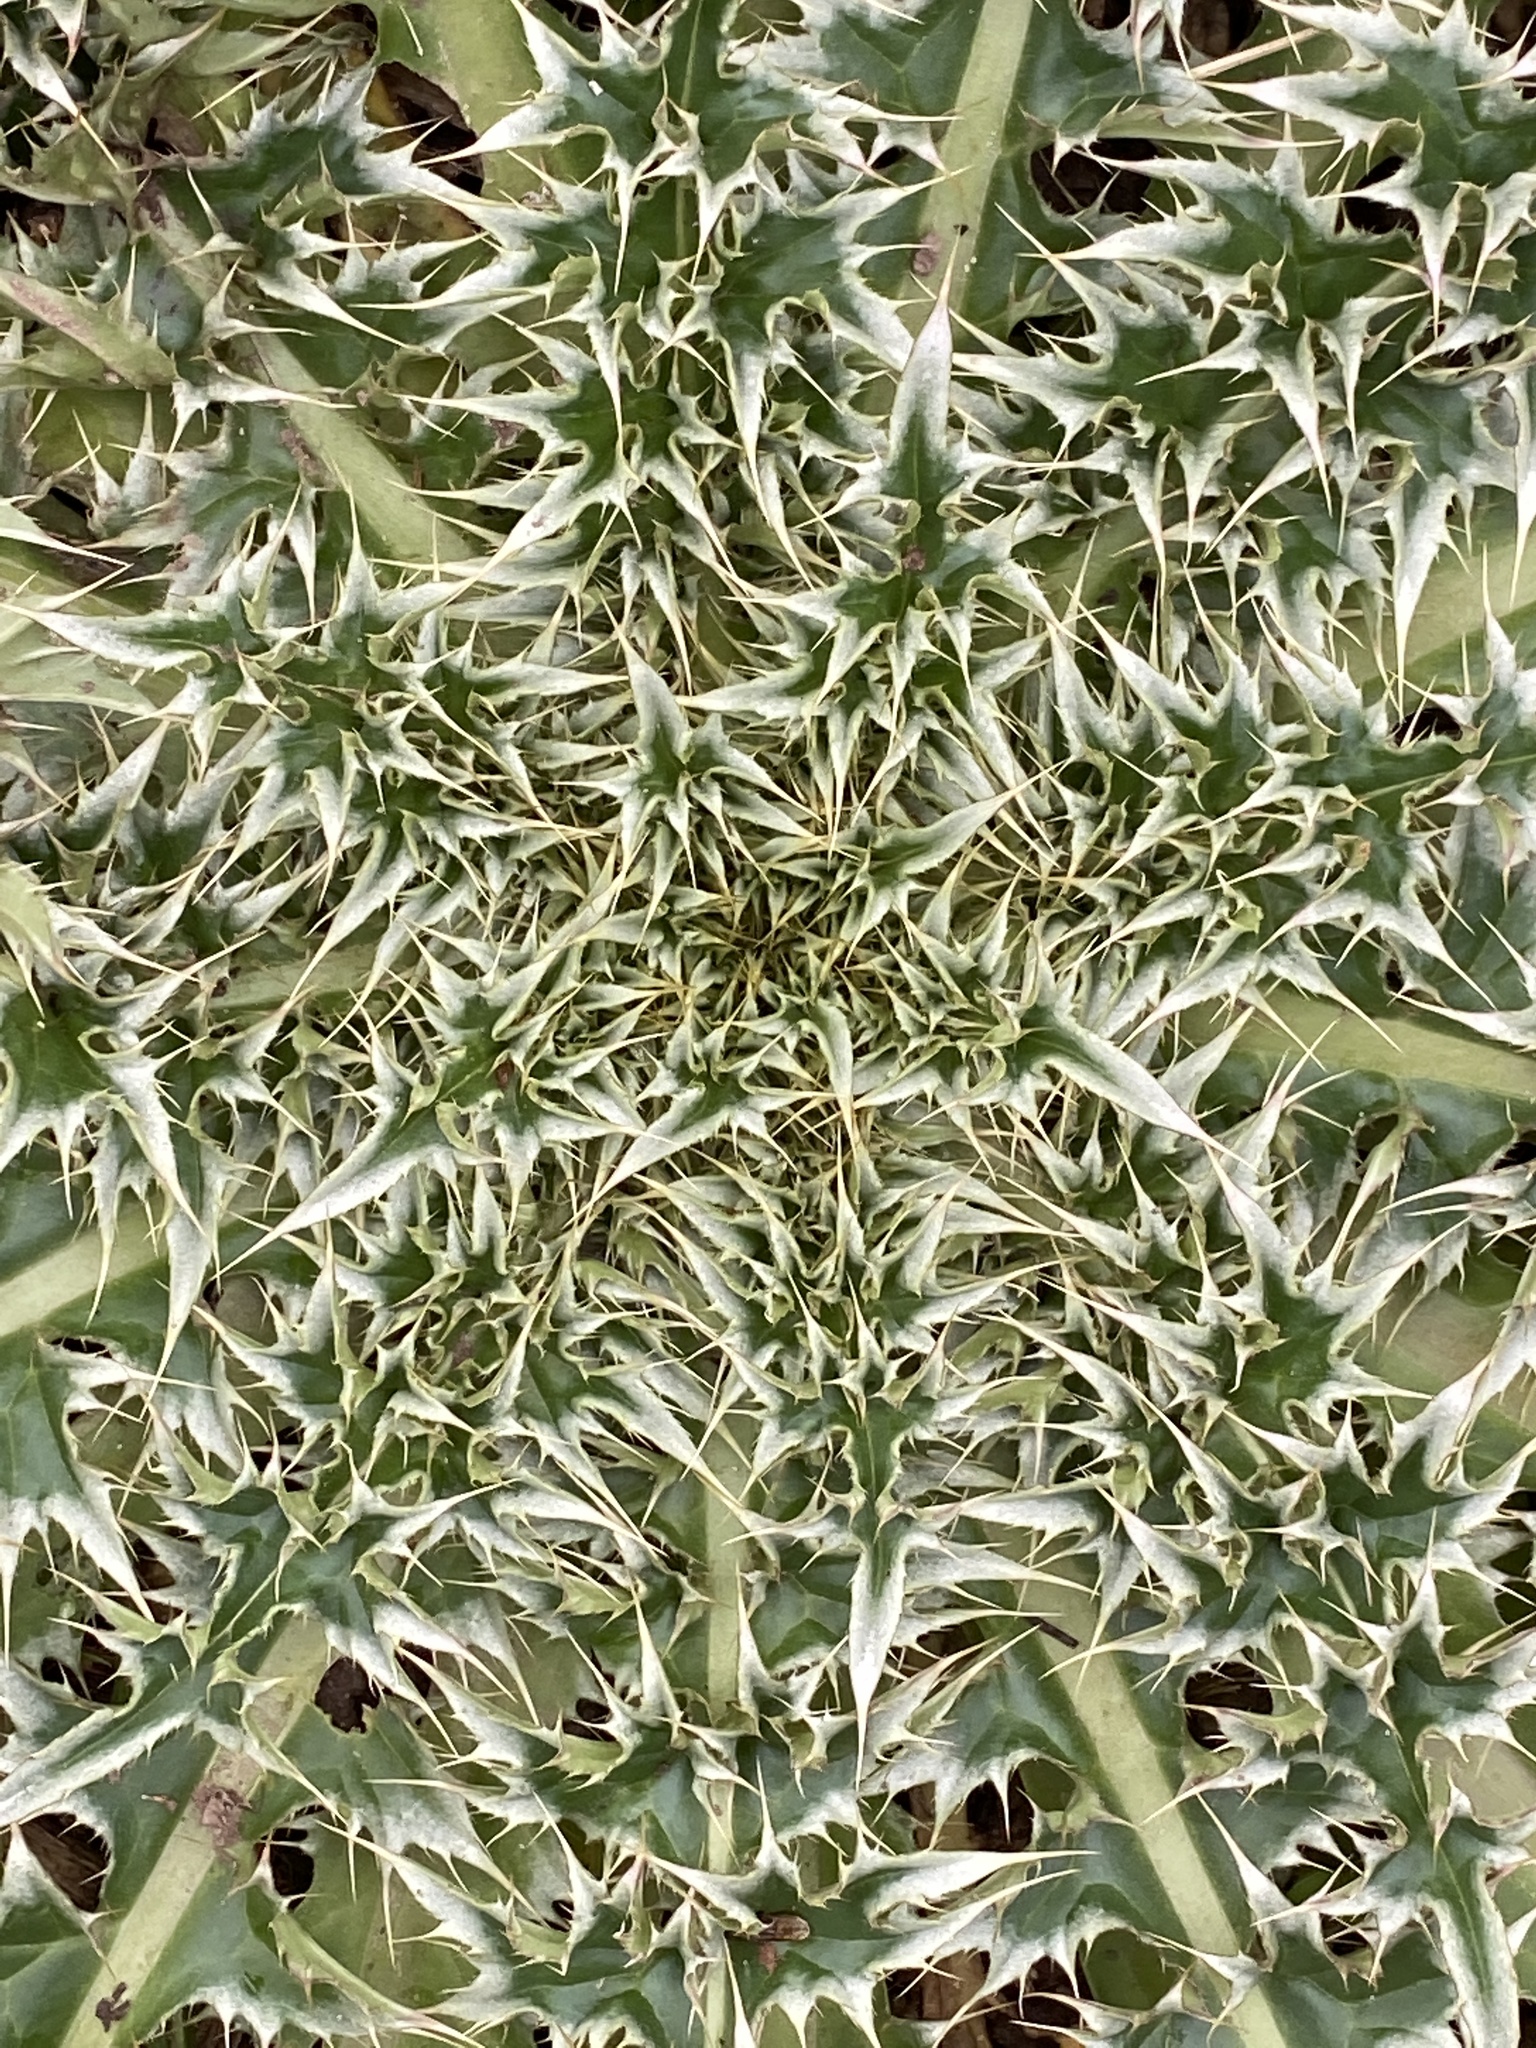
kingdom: Plantae
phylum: Tracheophyta
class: Magnoliopsida
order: Asterales
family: Asteraceae
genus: Carduus
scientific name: Carduus nutans
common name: Musk thistle
